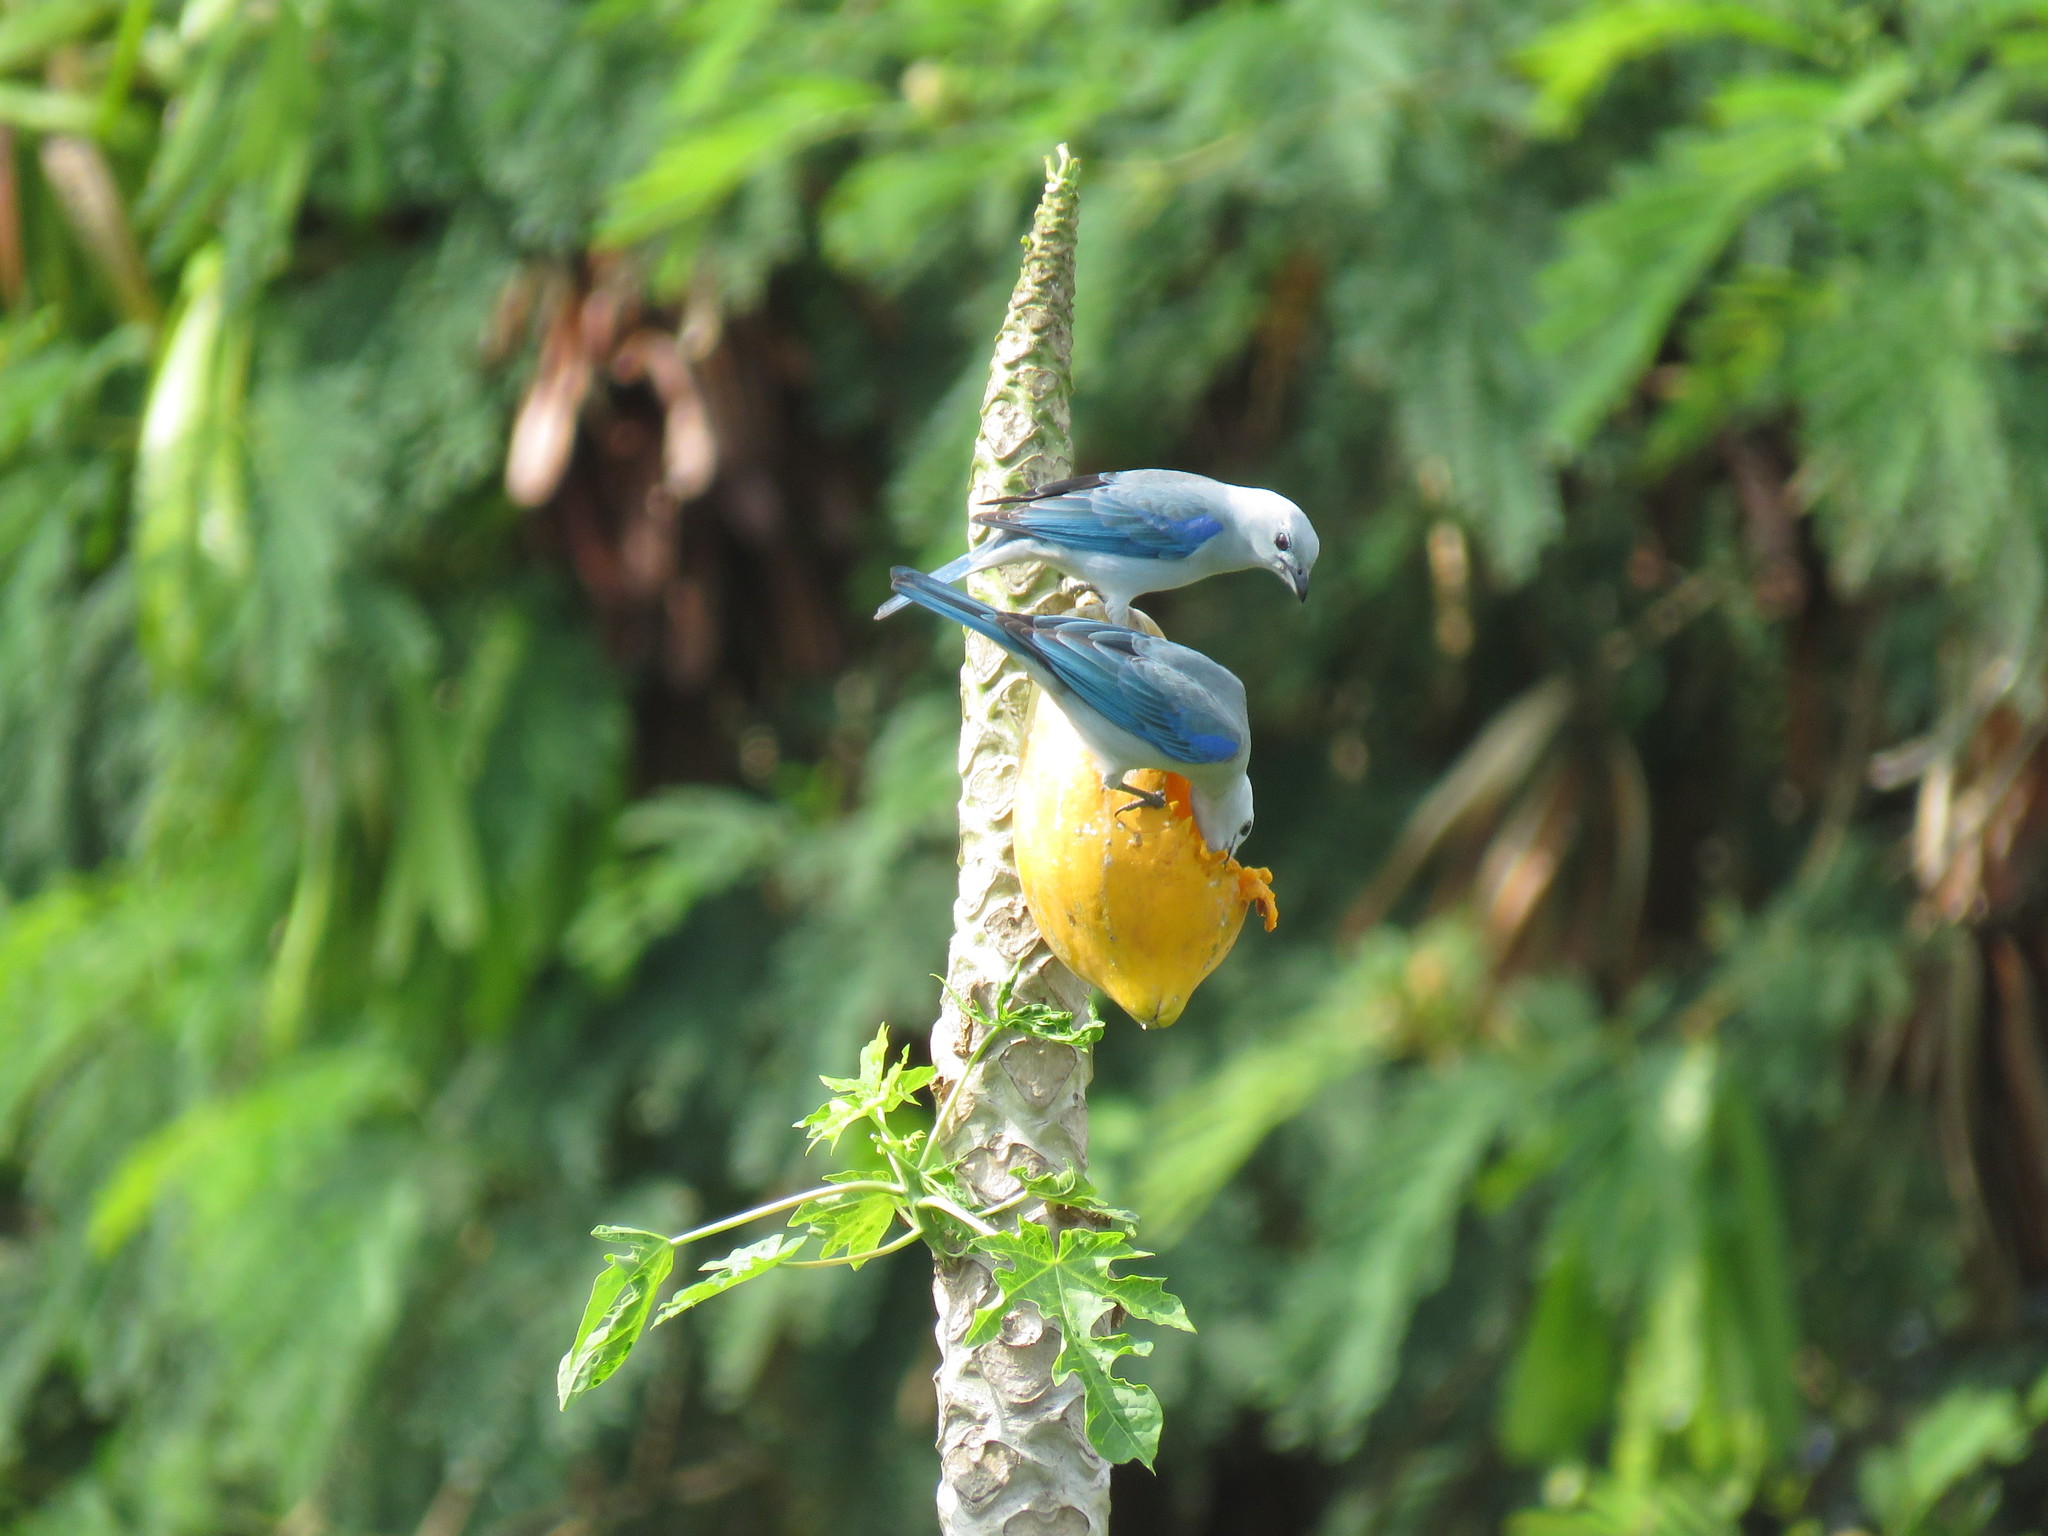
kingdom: Animalia
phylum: Chordata
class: Aves
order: Passeriformes
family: Thraupidae
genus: Thraupis
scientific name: Thraupis episcopus
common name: Blue-grey tanager
